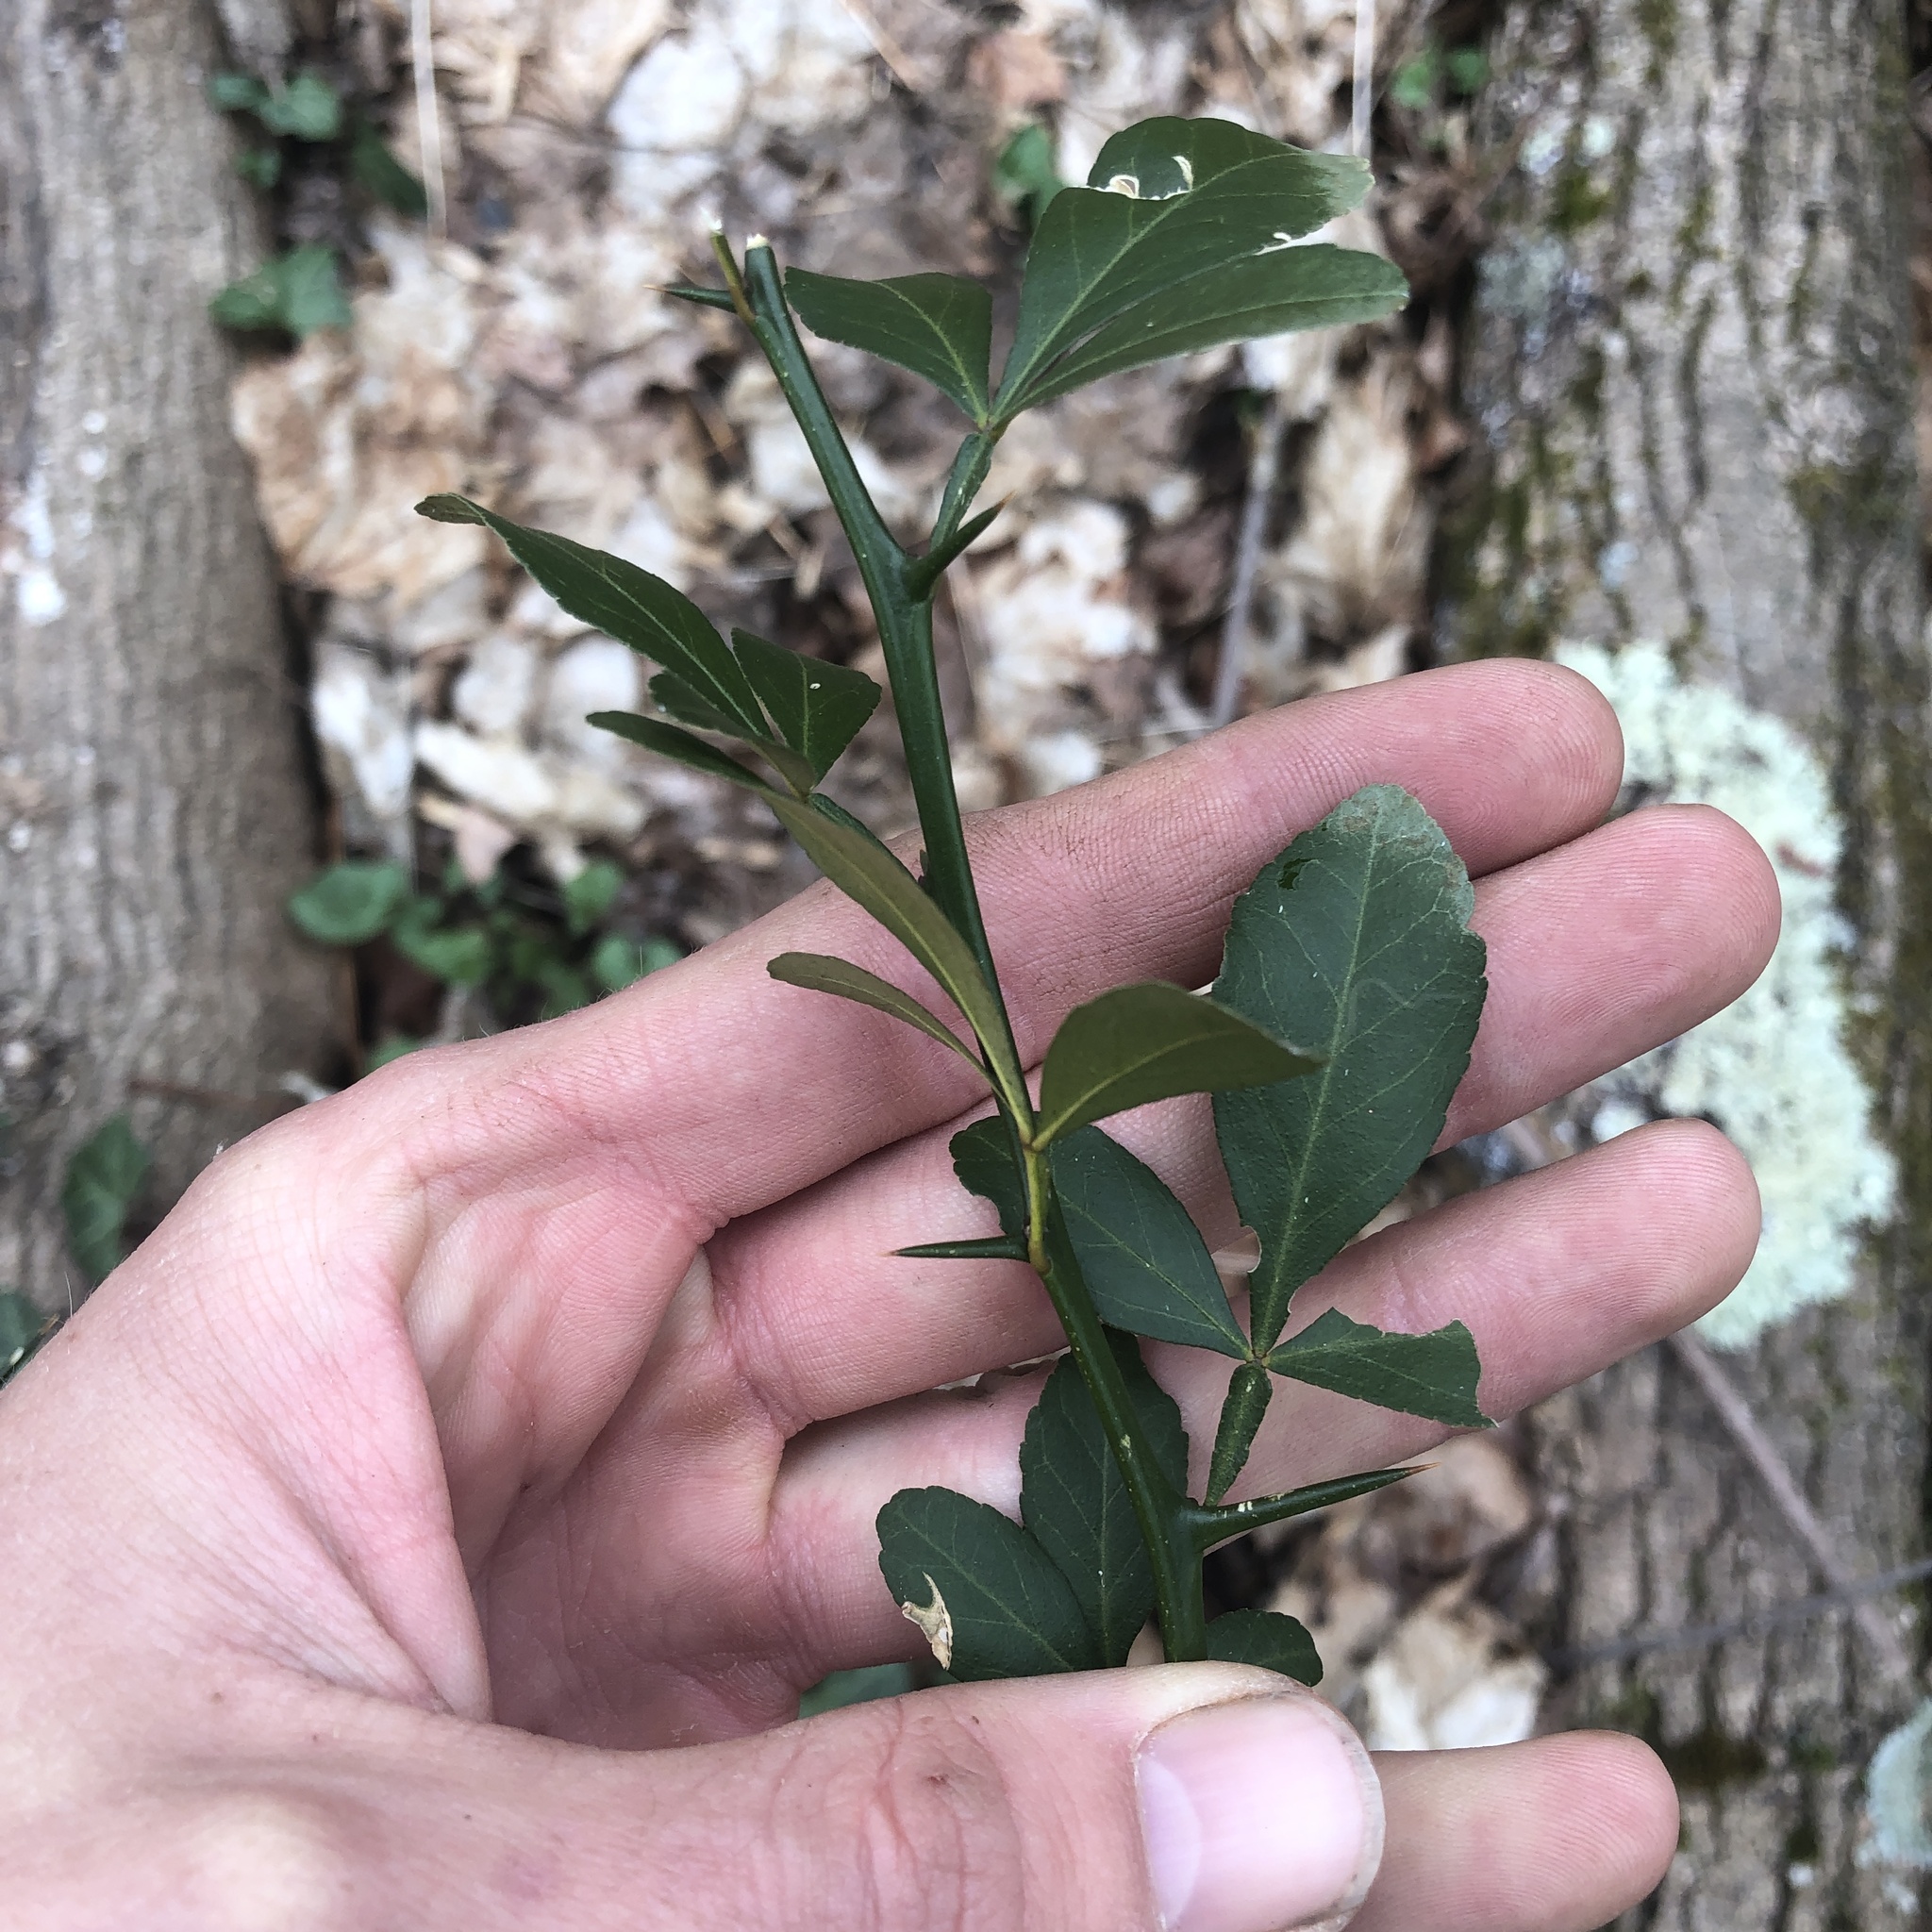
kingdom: Plantae
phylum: Tracheophyta
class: Magnoliopsida
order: Sapindales
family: Rutaceae
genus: Citrus
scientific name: Citrus trifoliata
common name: Japanese bitter-orange
